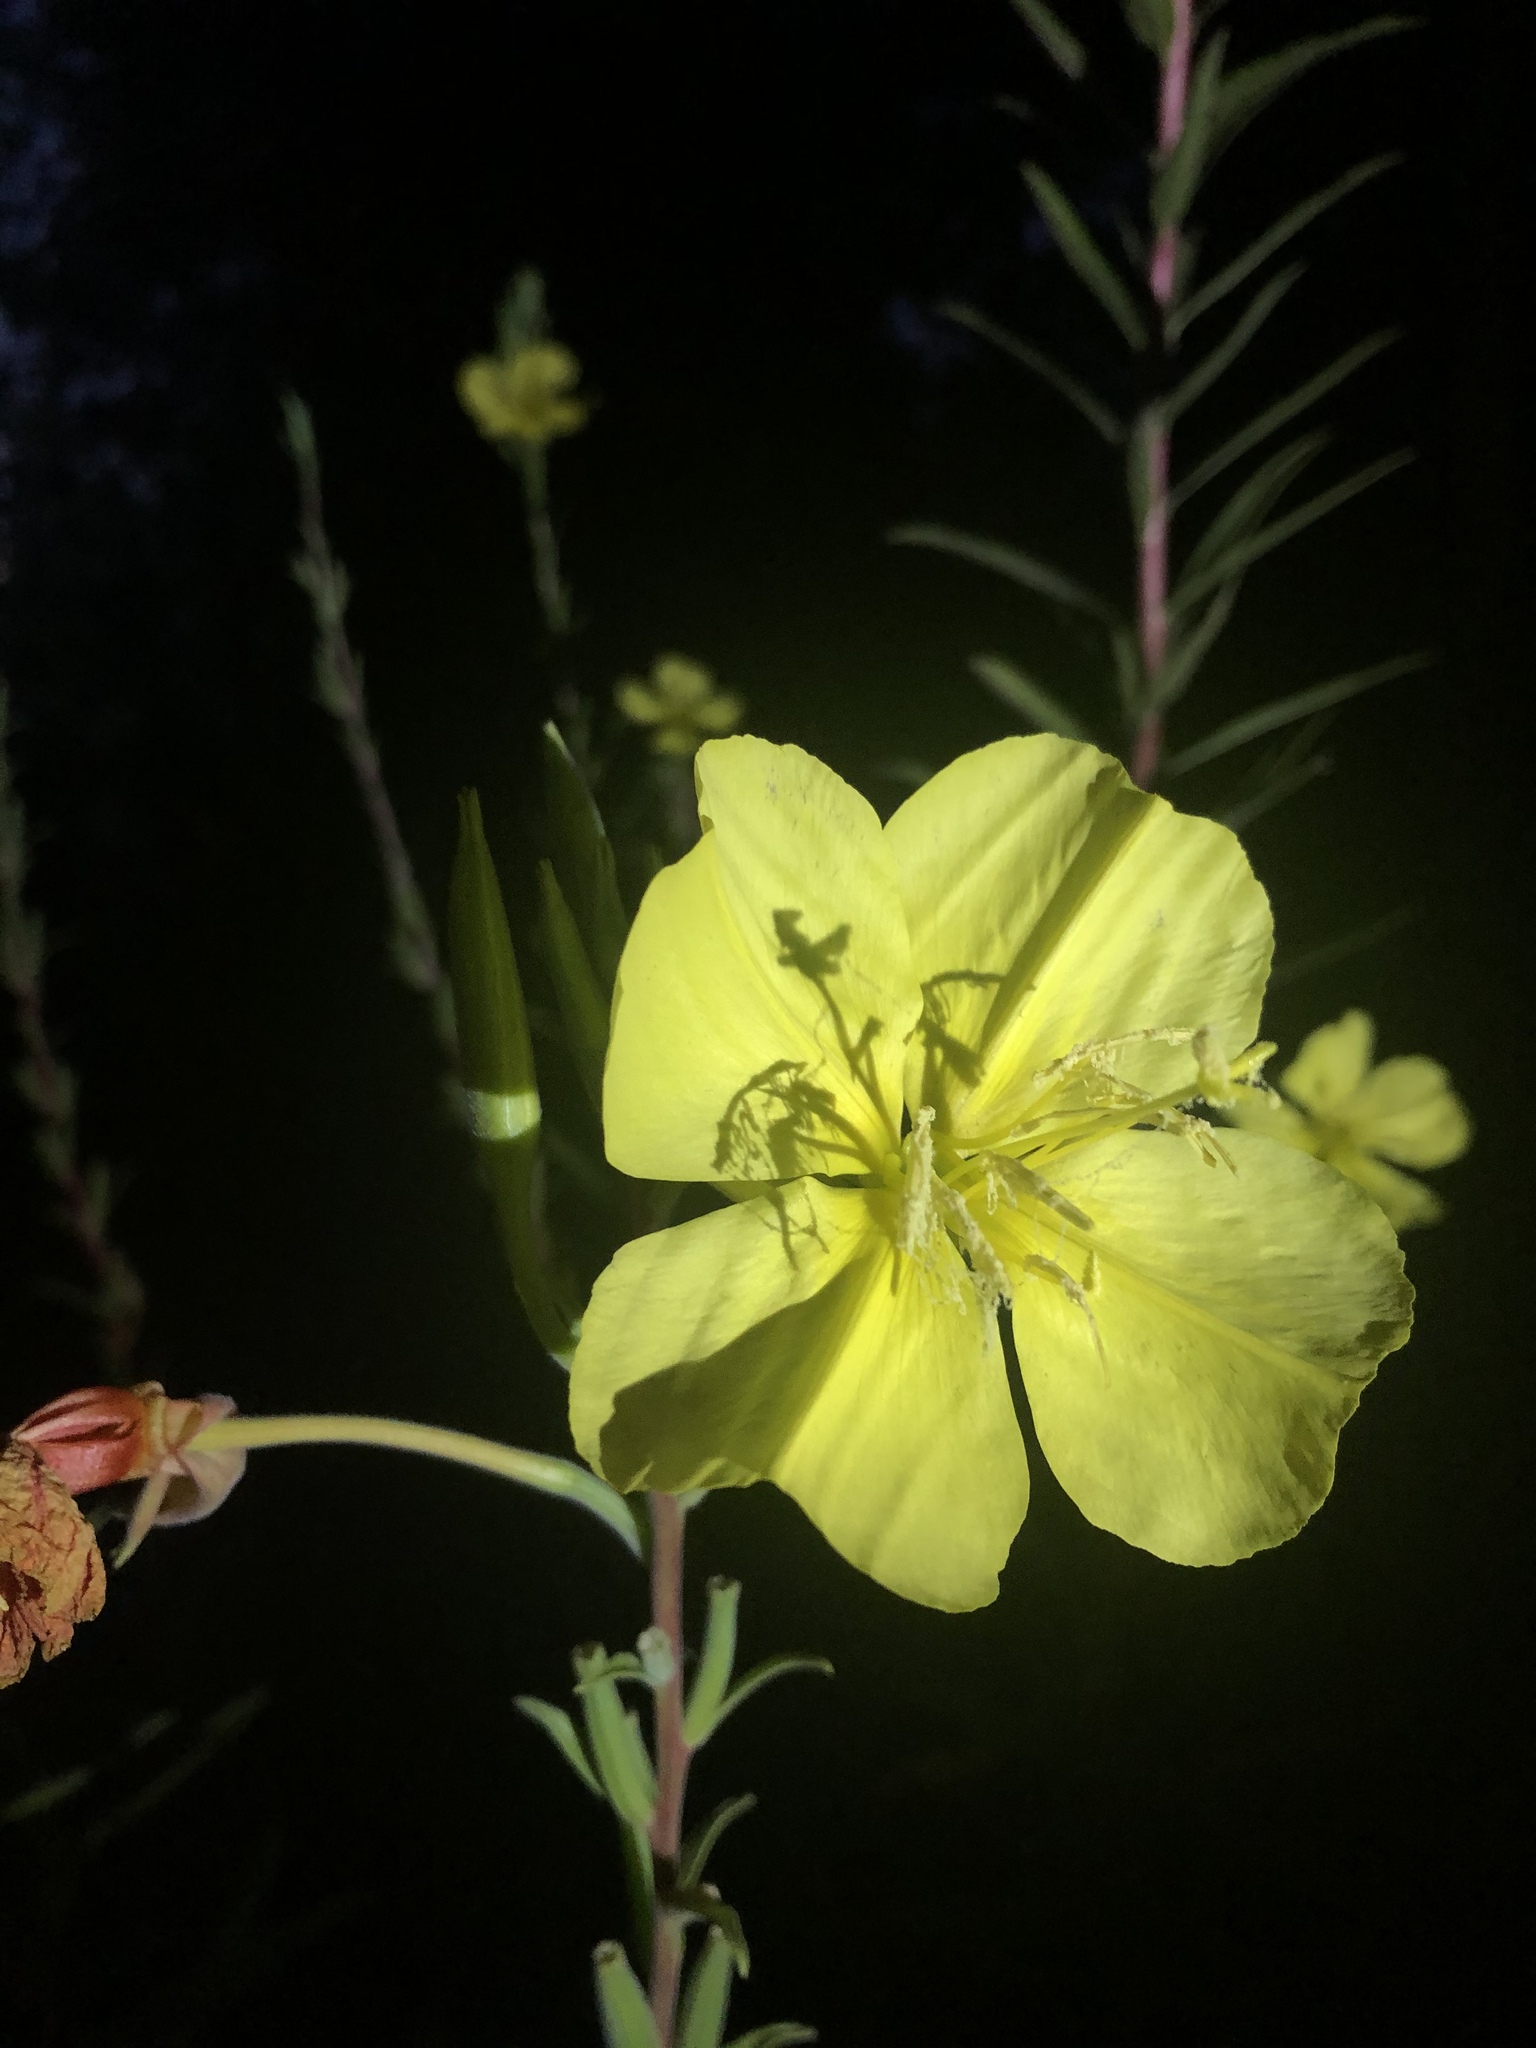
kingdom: Plantae
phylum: Tracheophyta
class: Magnoliopsida
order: Myrtales
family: Onagraceae
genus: Oenothera
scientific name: Oenothera elata
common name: Hooker's evening-primrose
